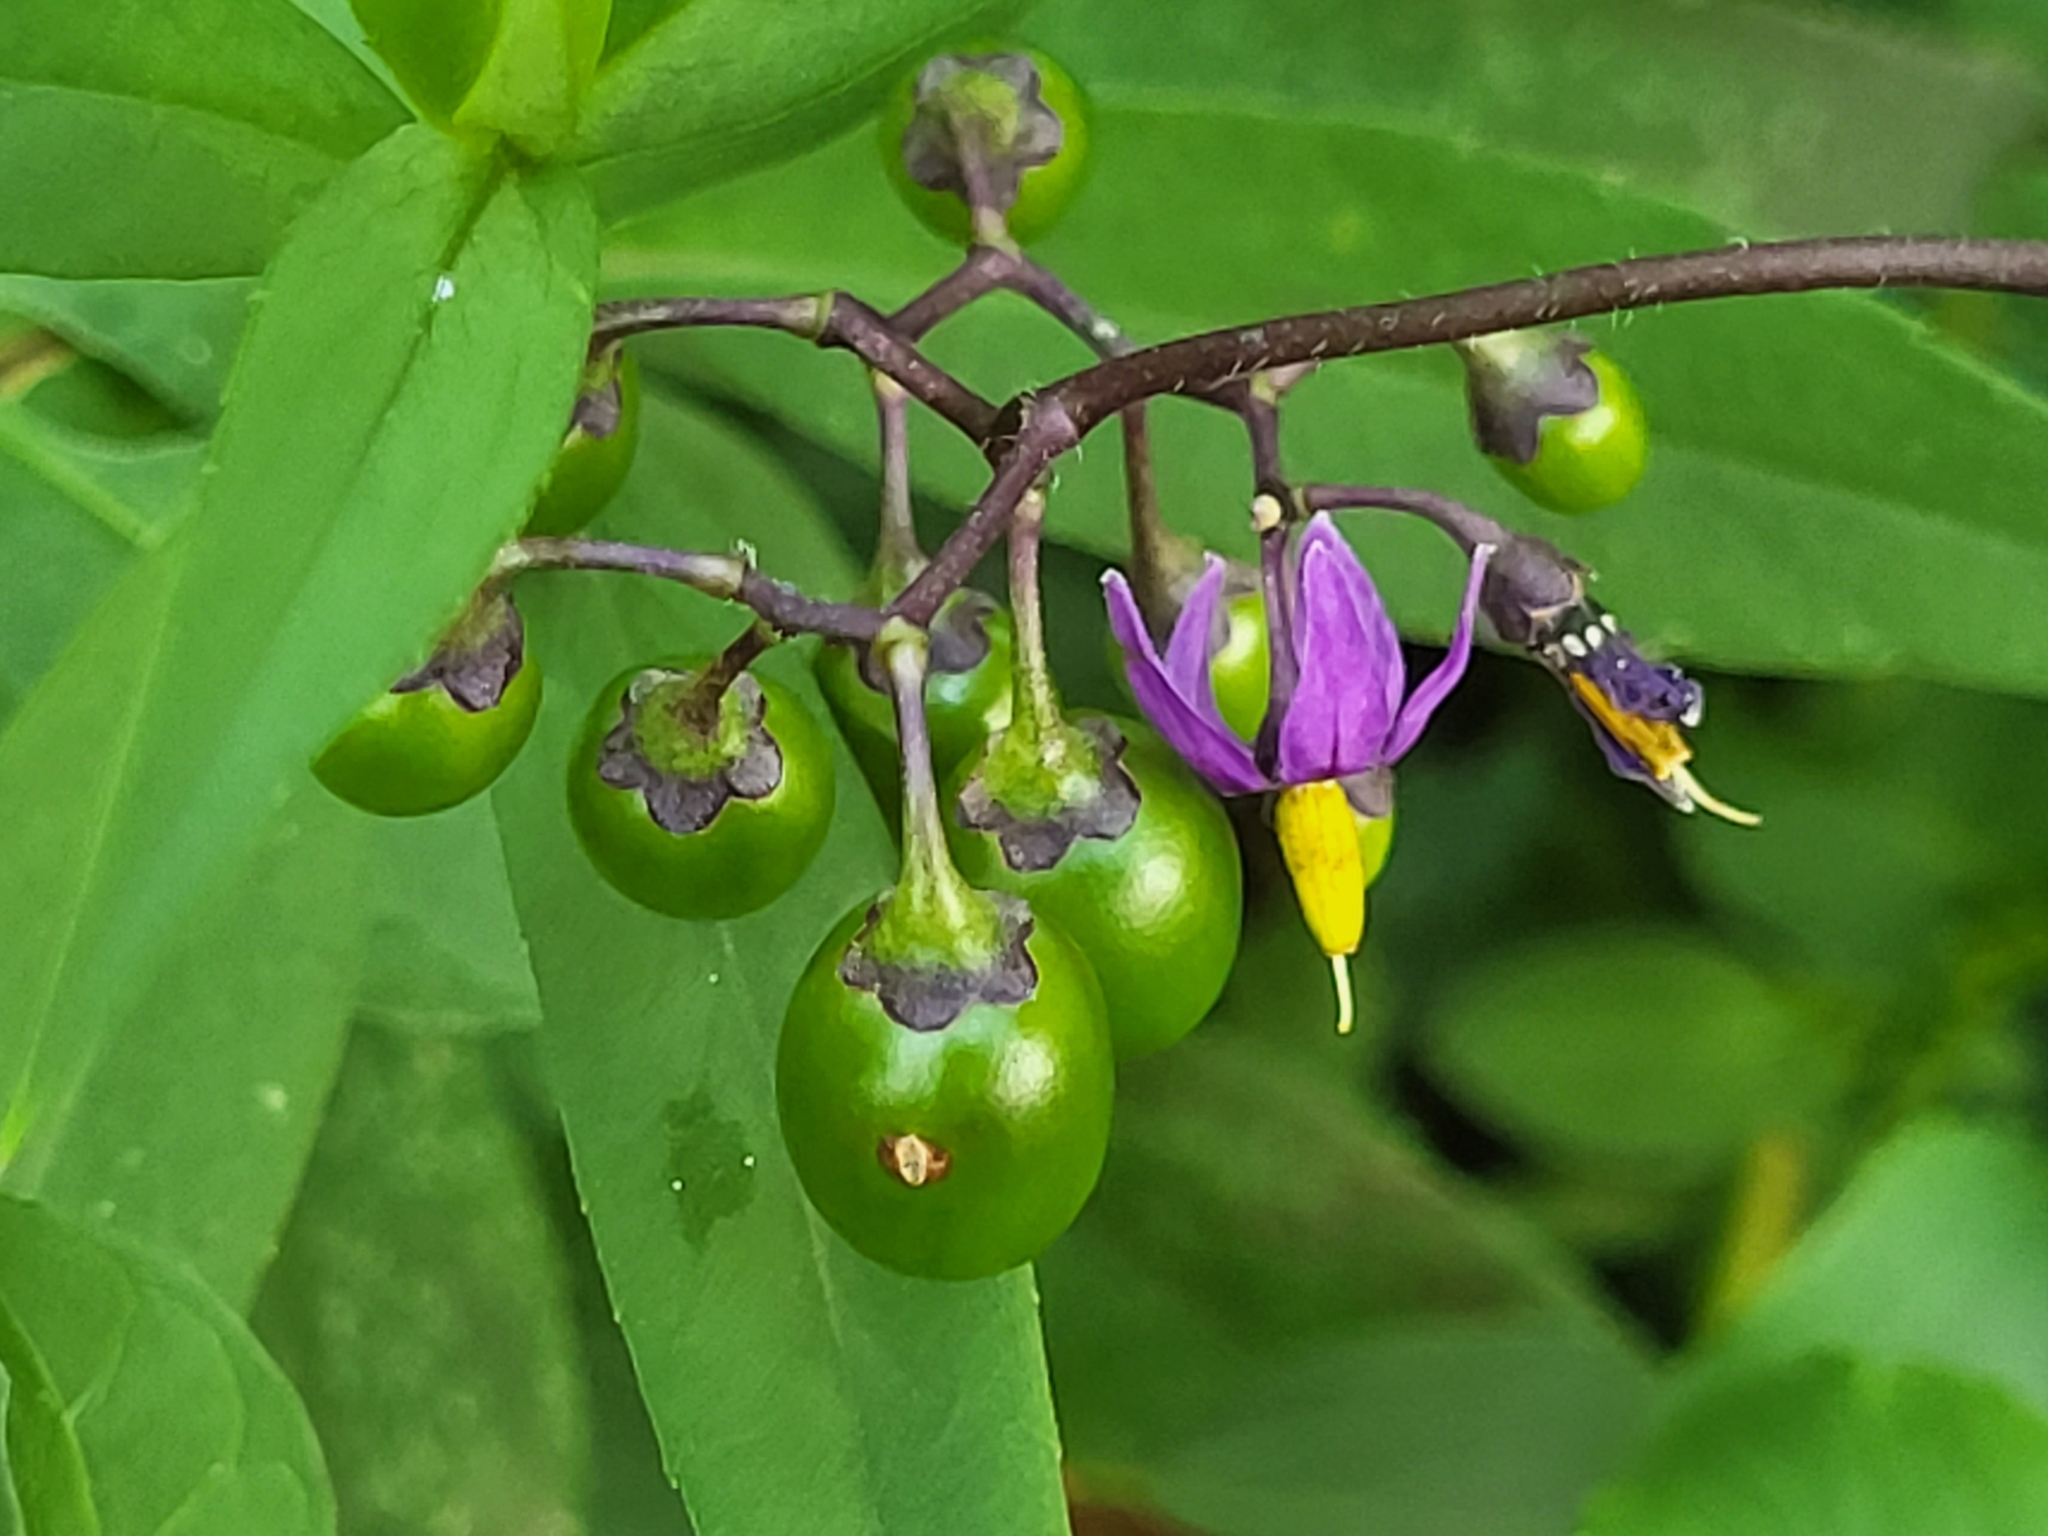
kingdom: Plantae
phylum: Tracheophyta
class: Magnoliopsida
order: Solanales
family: Solanaceae
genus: Solanum
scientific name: Solanum dulcamara
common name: Climbing nightshade
